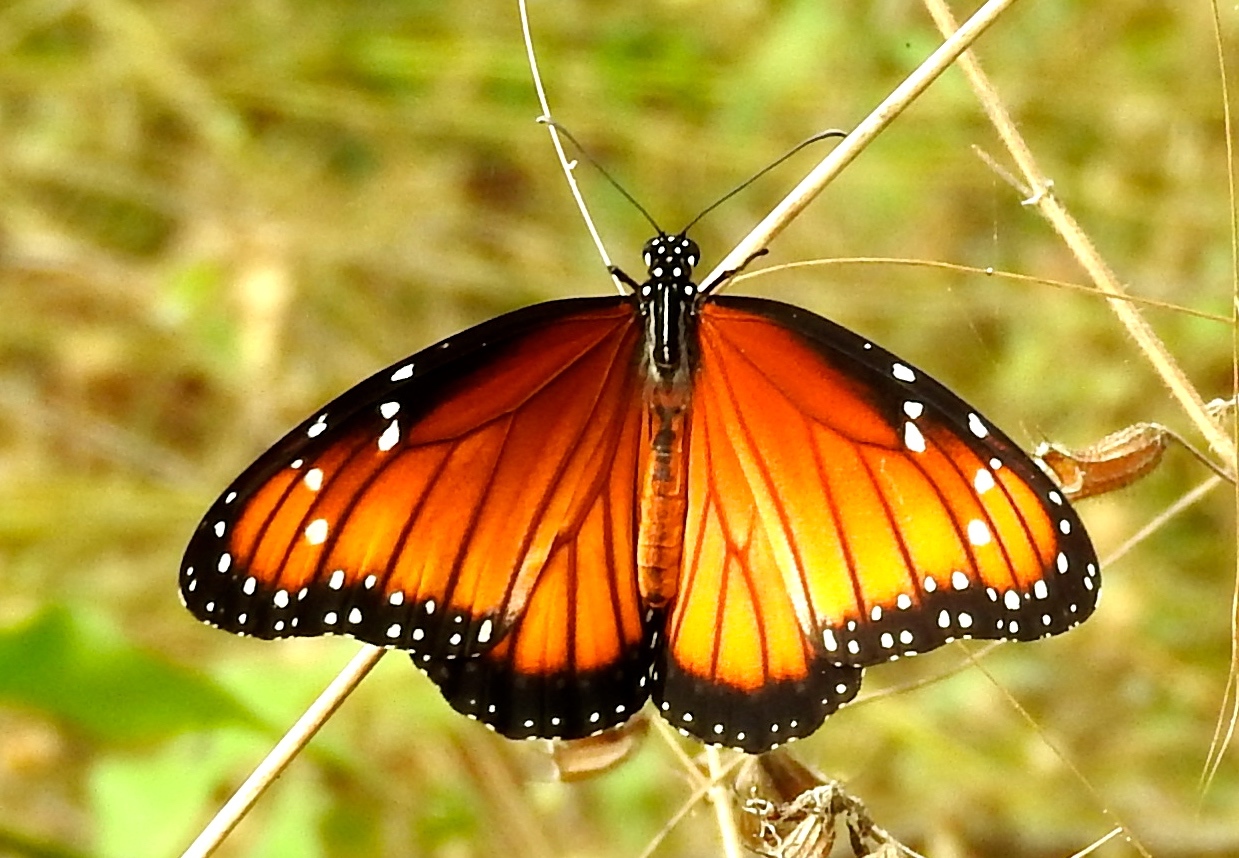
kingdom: Animalia
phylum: Arthropoda
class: Insecta
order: Lepidoptera
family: Nymphalidae
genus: Danaus
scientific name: Danaus eresimus
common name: Soldier
